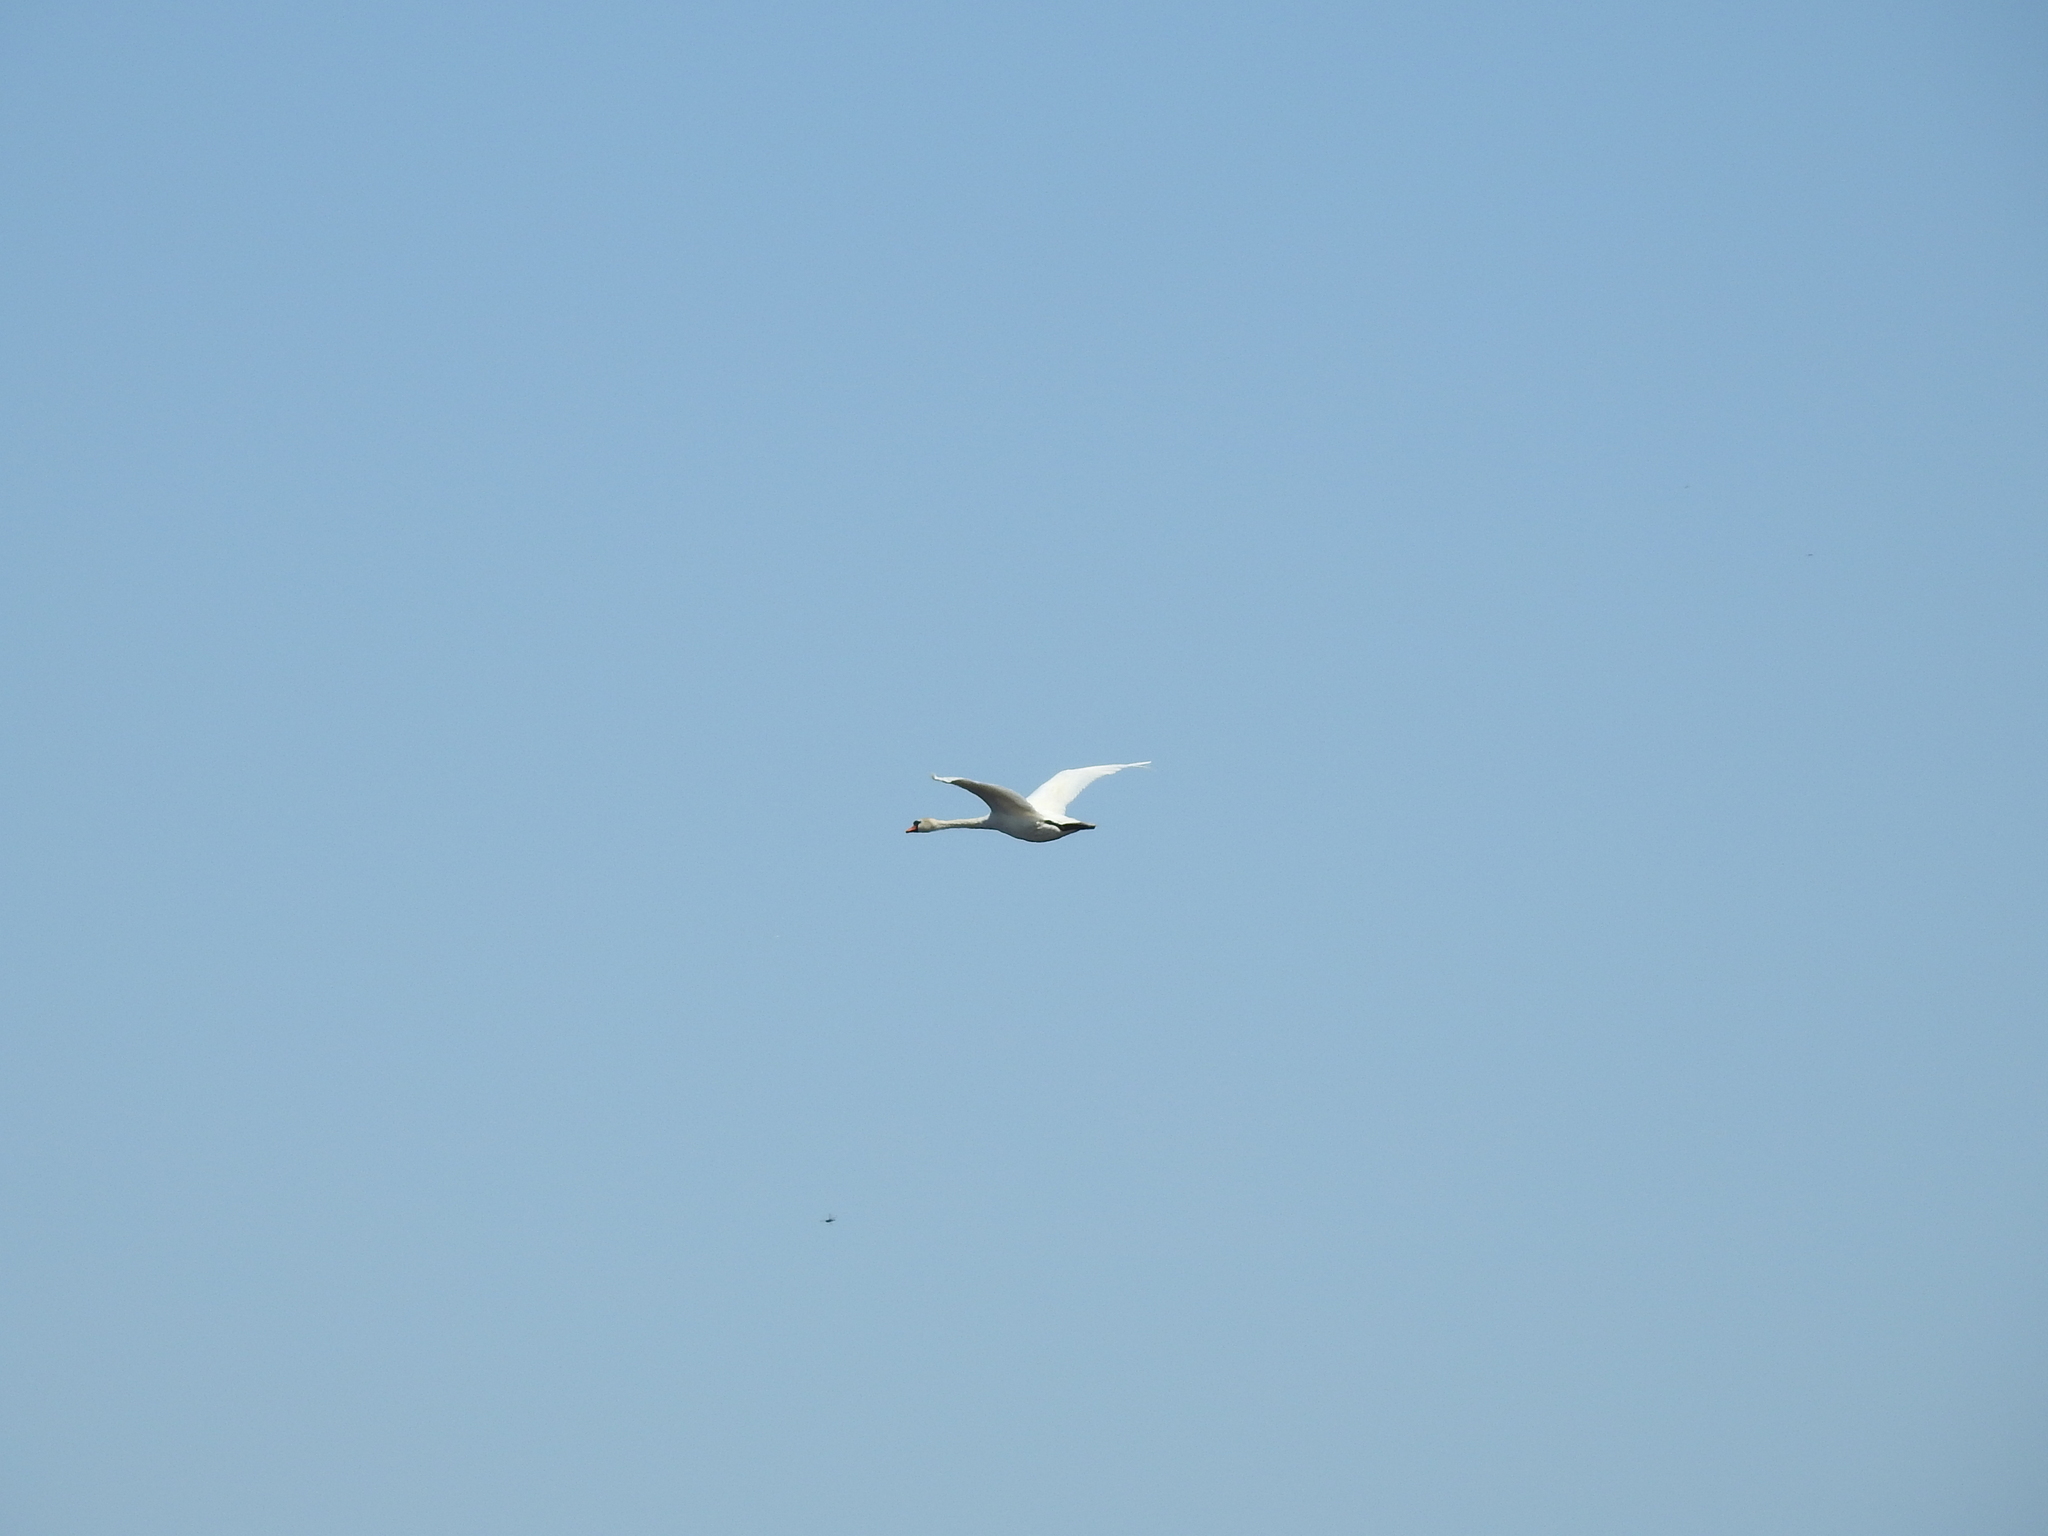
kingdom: Animalia
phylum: Chordata
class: Aves
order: Anseriformes
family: Anatidae
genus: Cygnus
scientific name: Cygnus olor
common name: Mute swan
